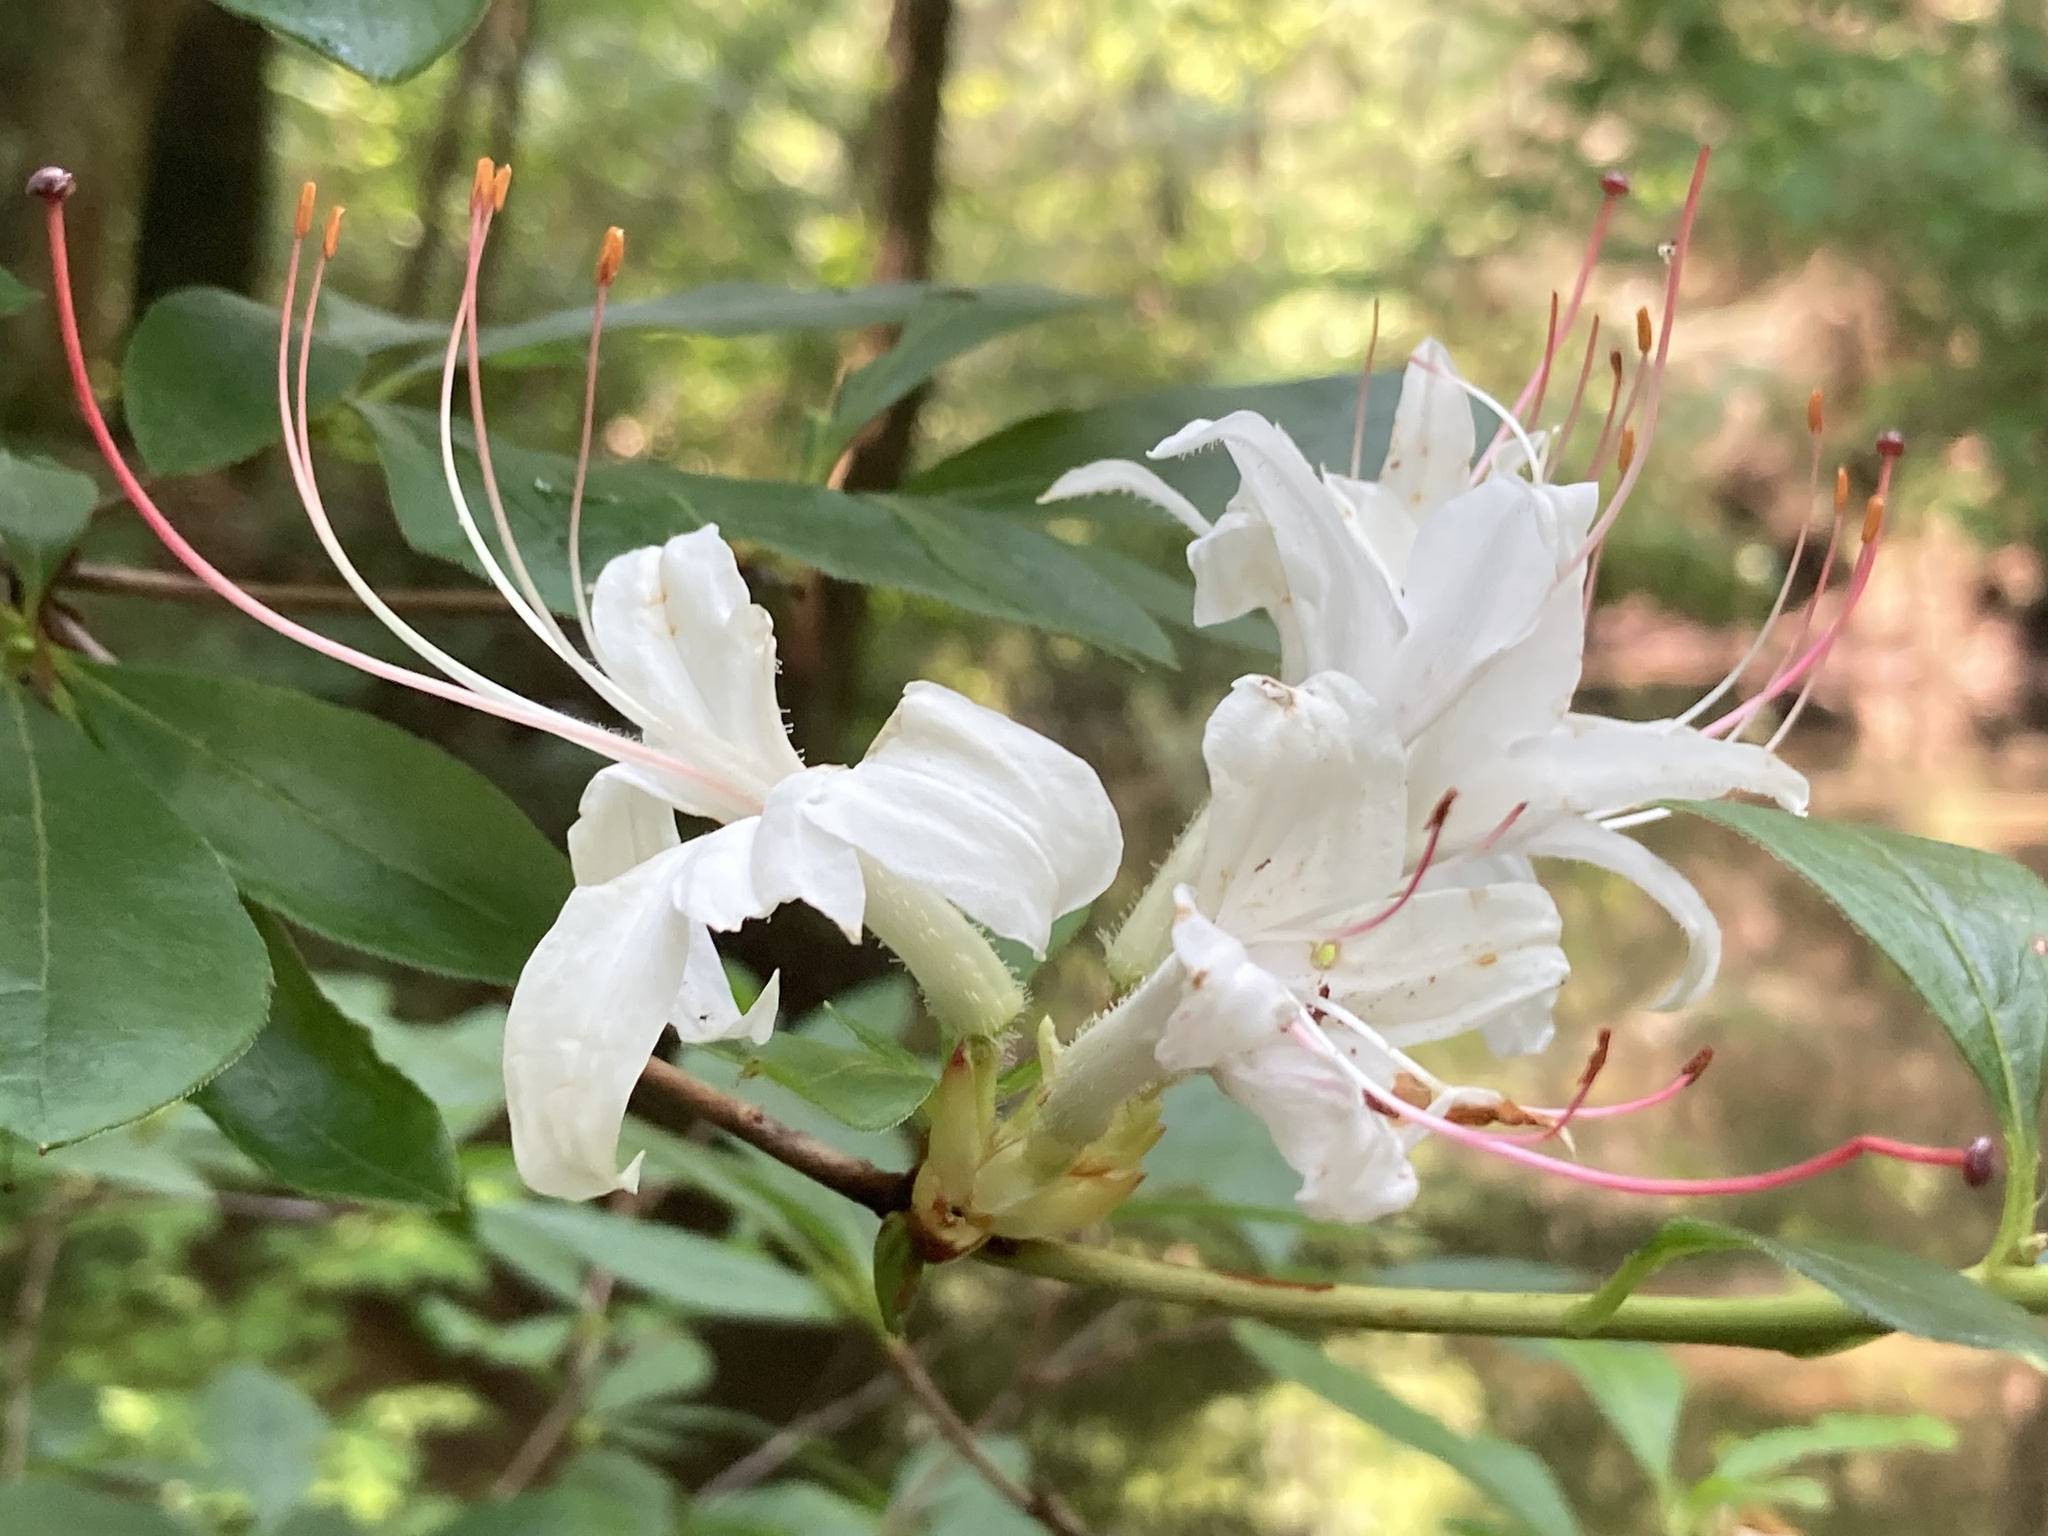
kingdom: Plantae
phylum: Tracheophyta
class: Magnoliopsida
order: Ericales
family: Ericaceae
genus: Rhododendron
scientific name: Rhododendron arborescens
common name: Sweet azalea
